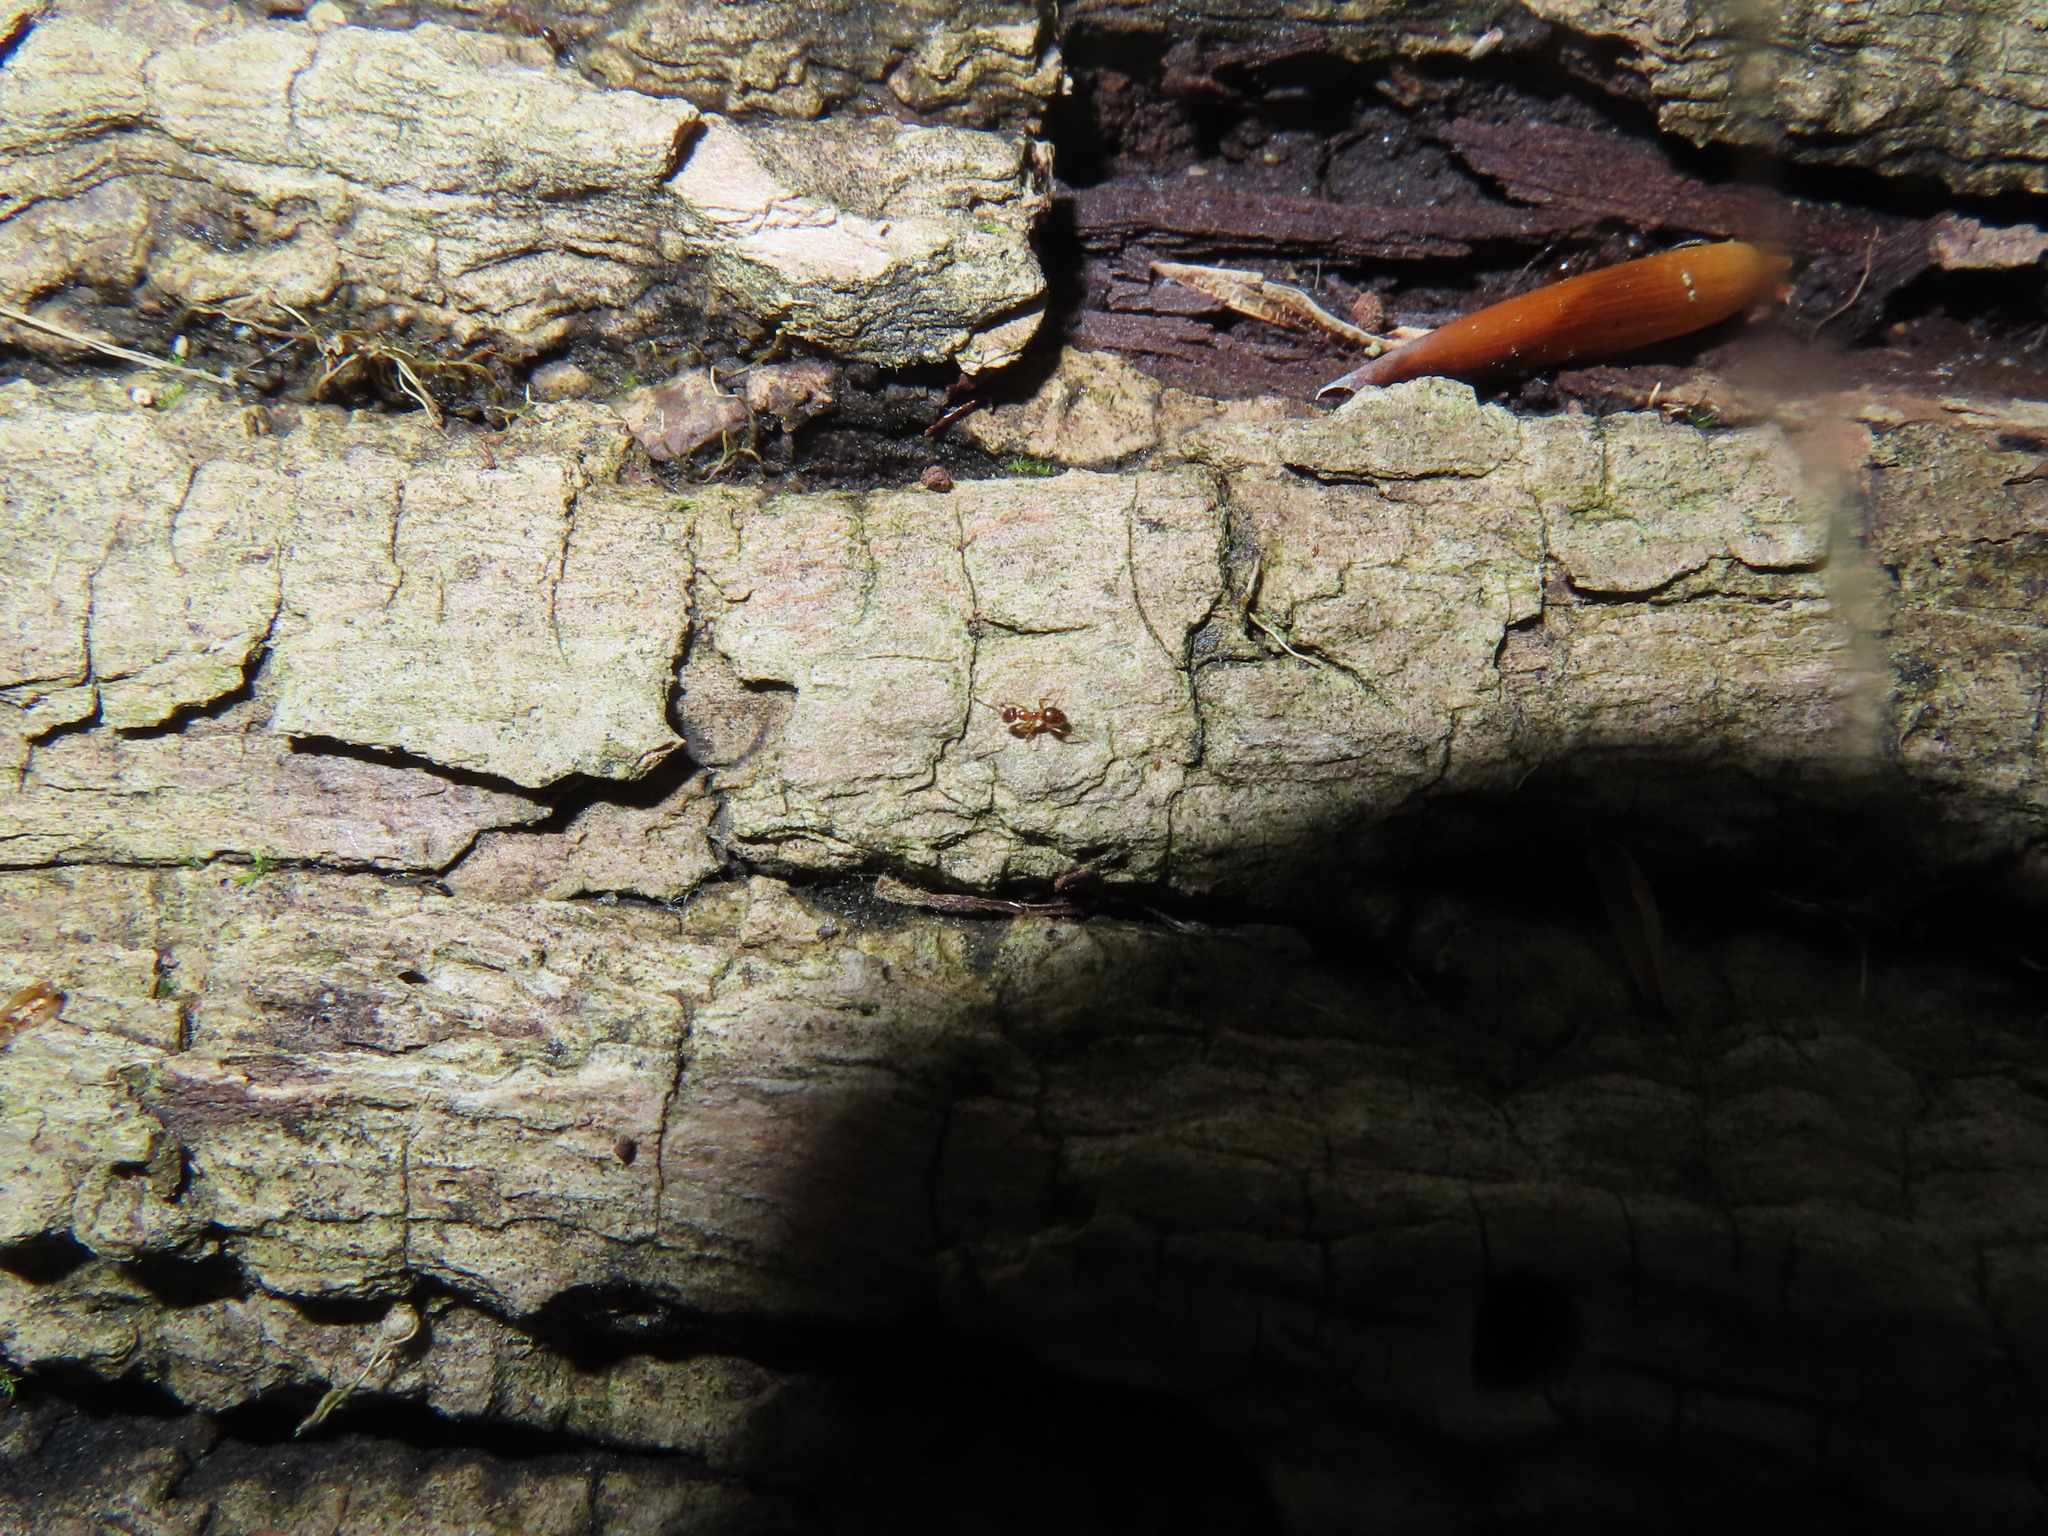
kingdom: Animalia
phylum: Arthropoda
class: Insecta
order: Hymenoptera
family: Formicidae
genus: Prenolepis
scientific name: Prenolepis imparis
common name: Small honey ant
